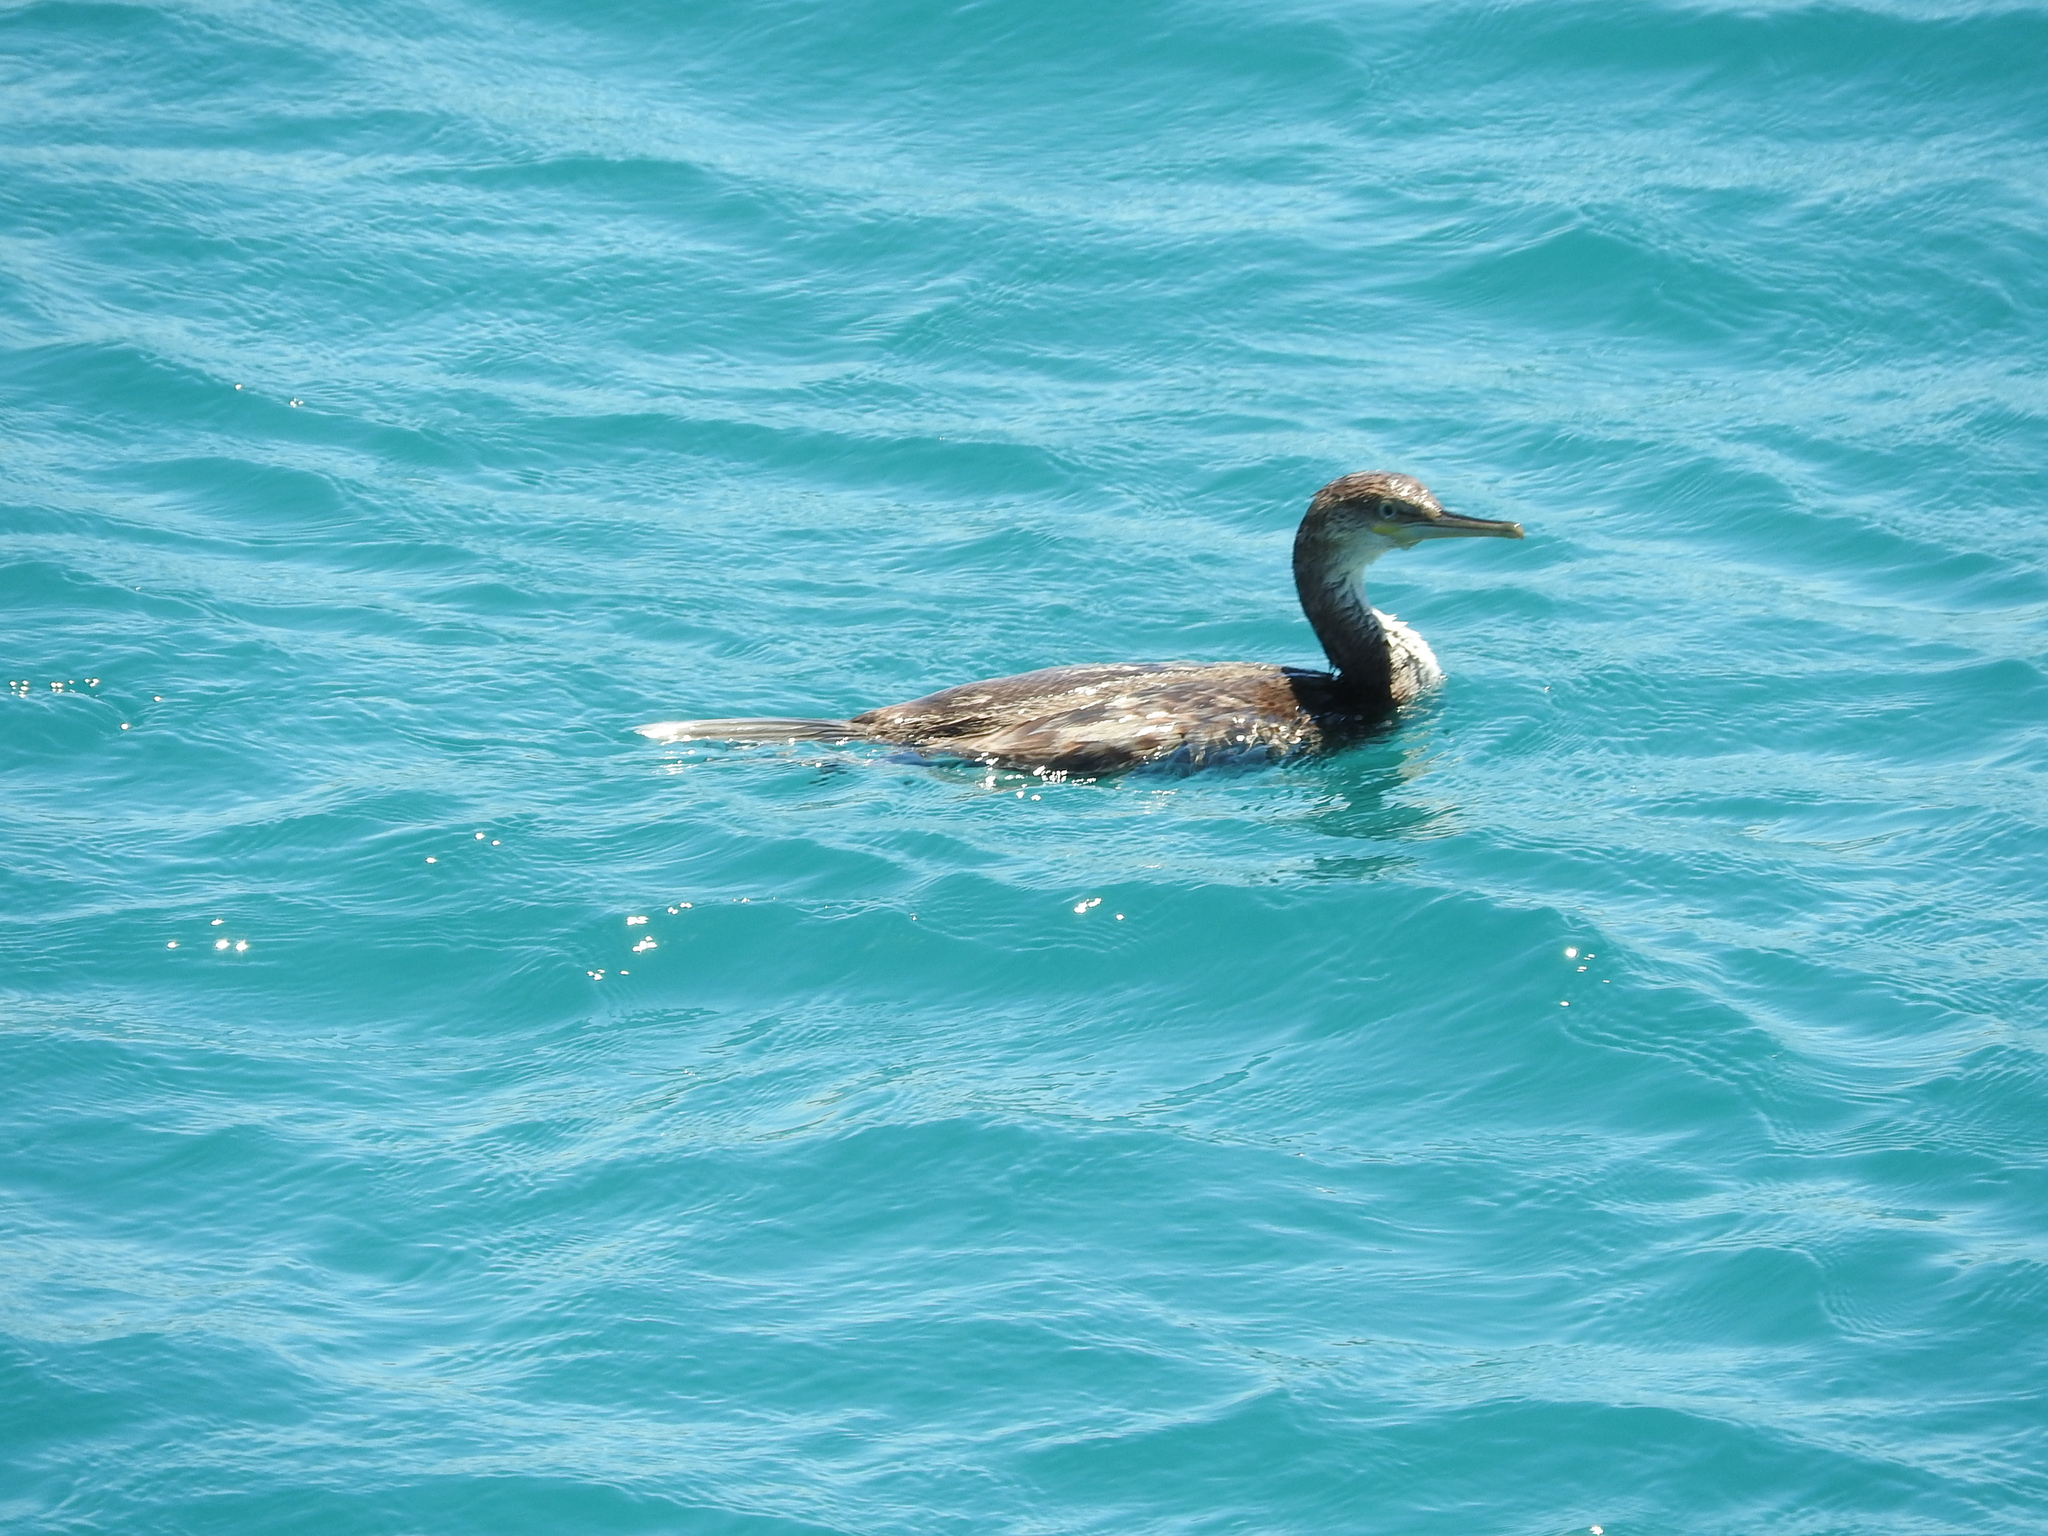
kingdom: Animalia
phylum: Chordata
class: Aves
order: Suliformes
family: Phalacrocoracidae
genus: Phalacrocorax
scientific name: Phalacrocorax aristotelis
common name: European shag
